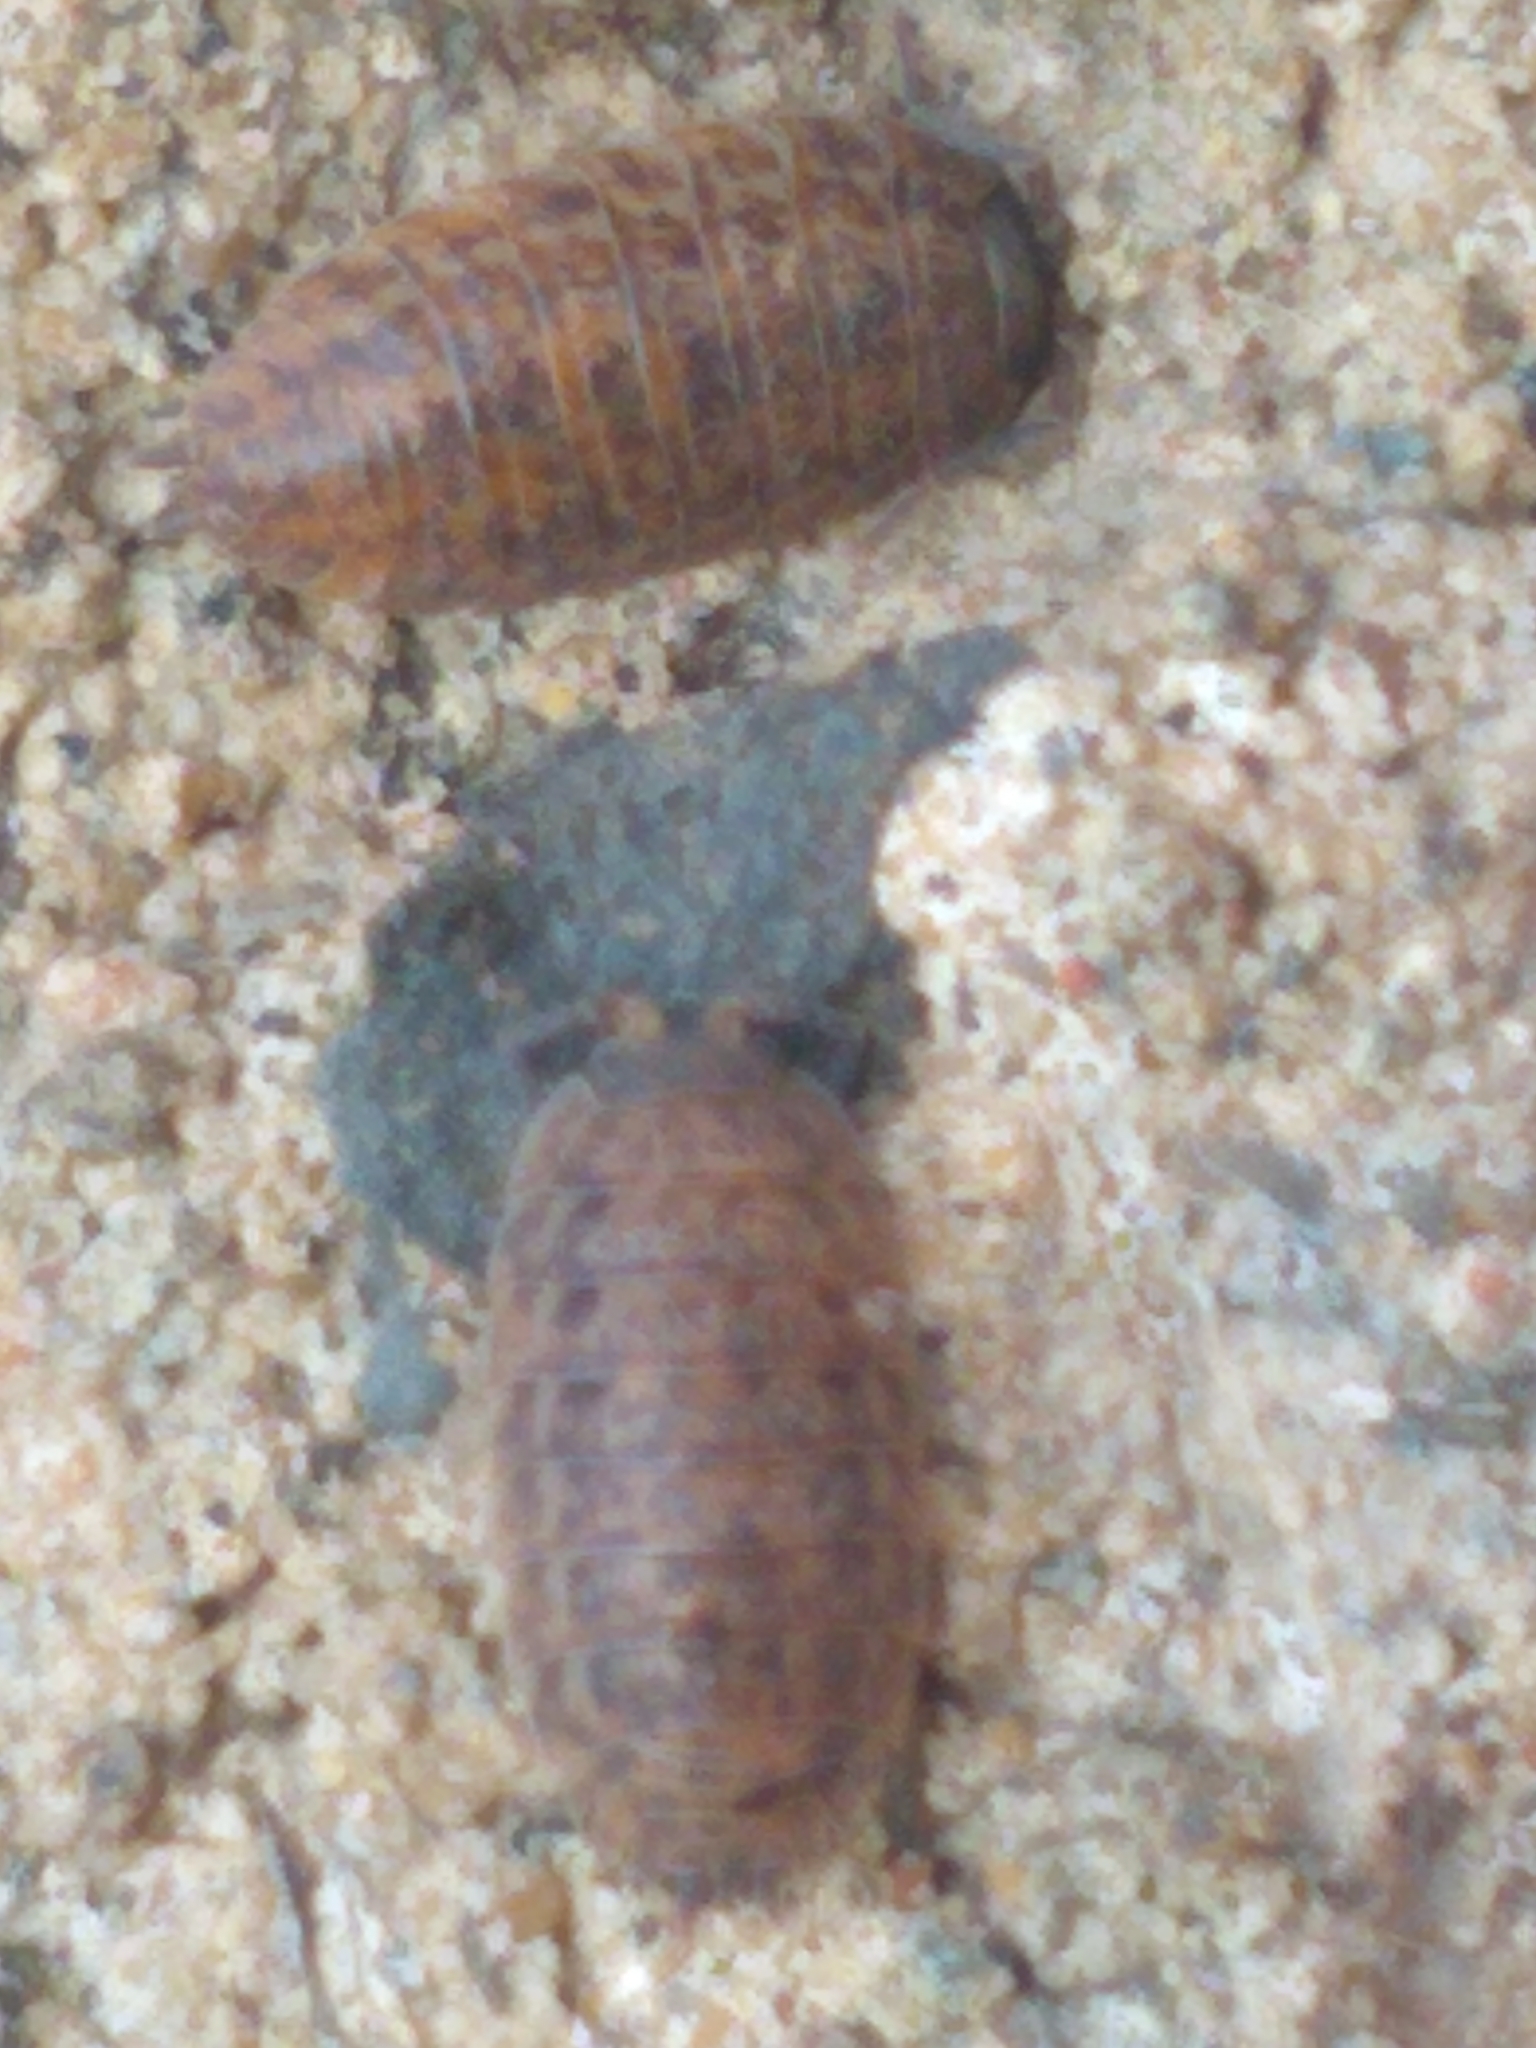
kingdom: Animalia
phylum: Arthropoda
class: Malacostraca
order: Isopoda
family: Trachelipodidae
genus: Trachelipus
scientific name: Trachelipus rathkii
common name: Isopod
